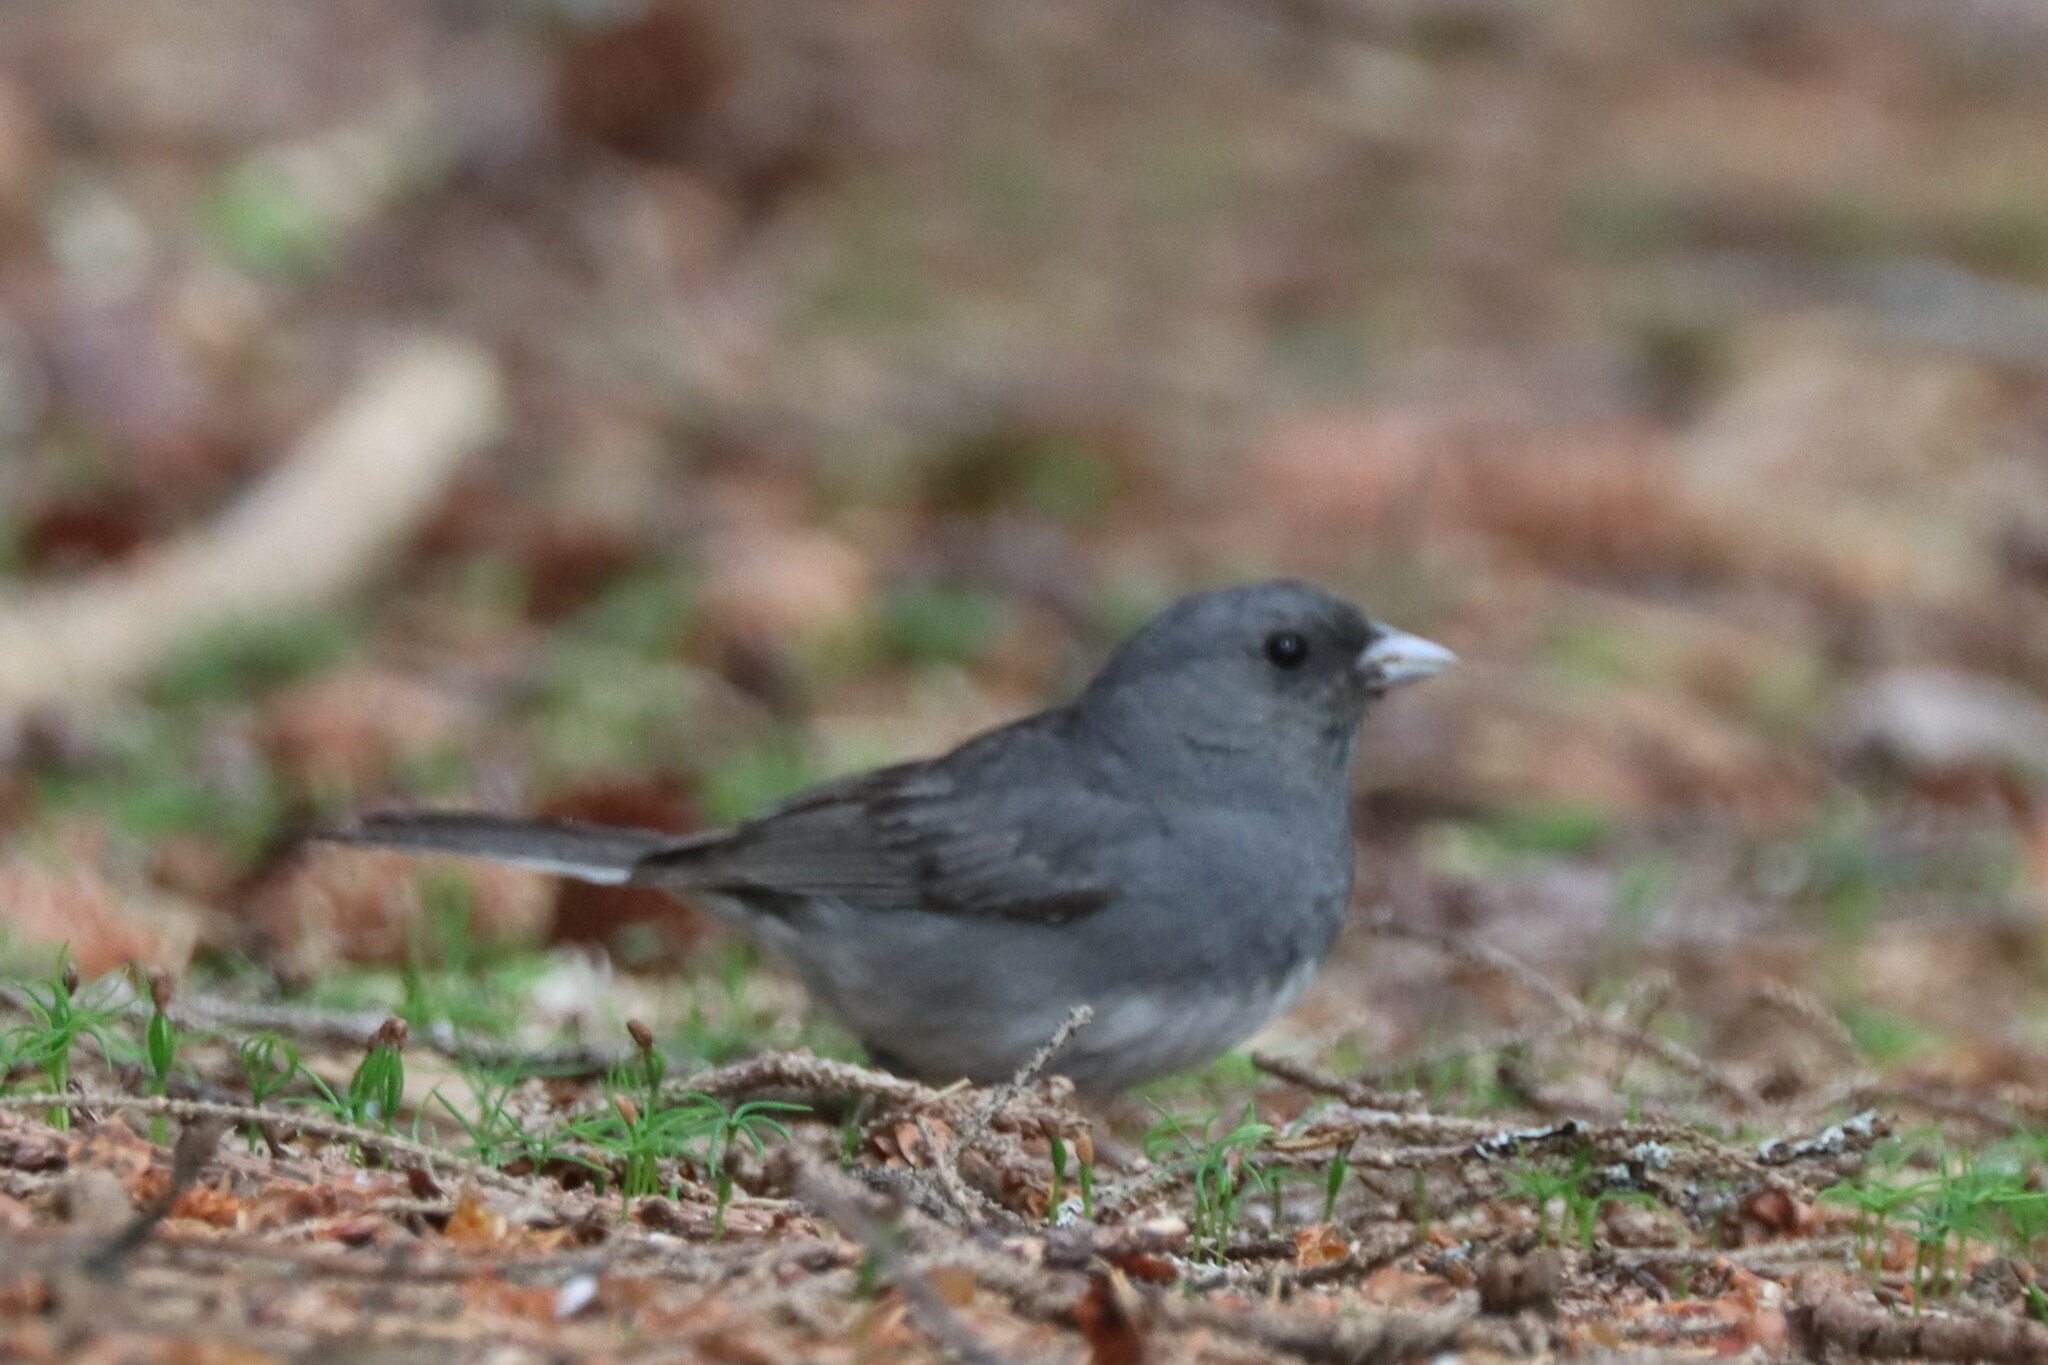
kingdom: Animalia
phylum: Chordata
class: Aves
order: Passeriformes
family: Passerellidae
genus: Junco
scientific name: Junco hyemalis
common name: Dark-eyed junco
